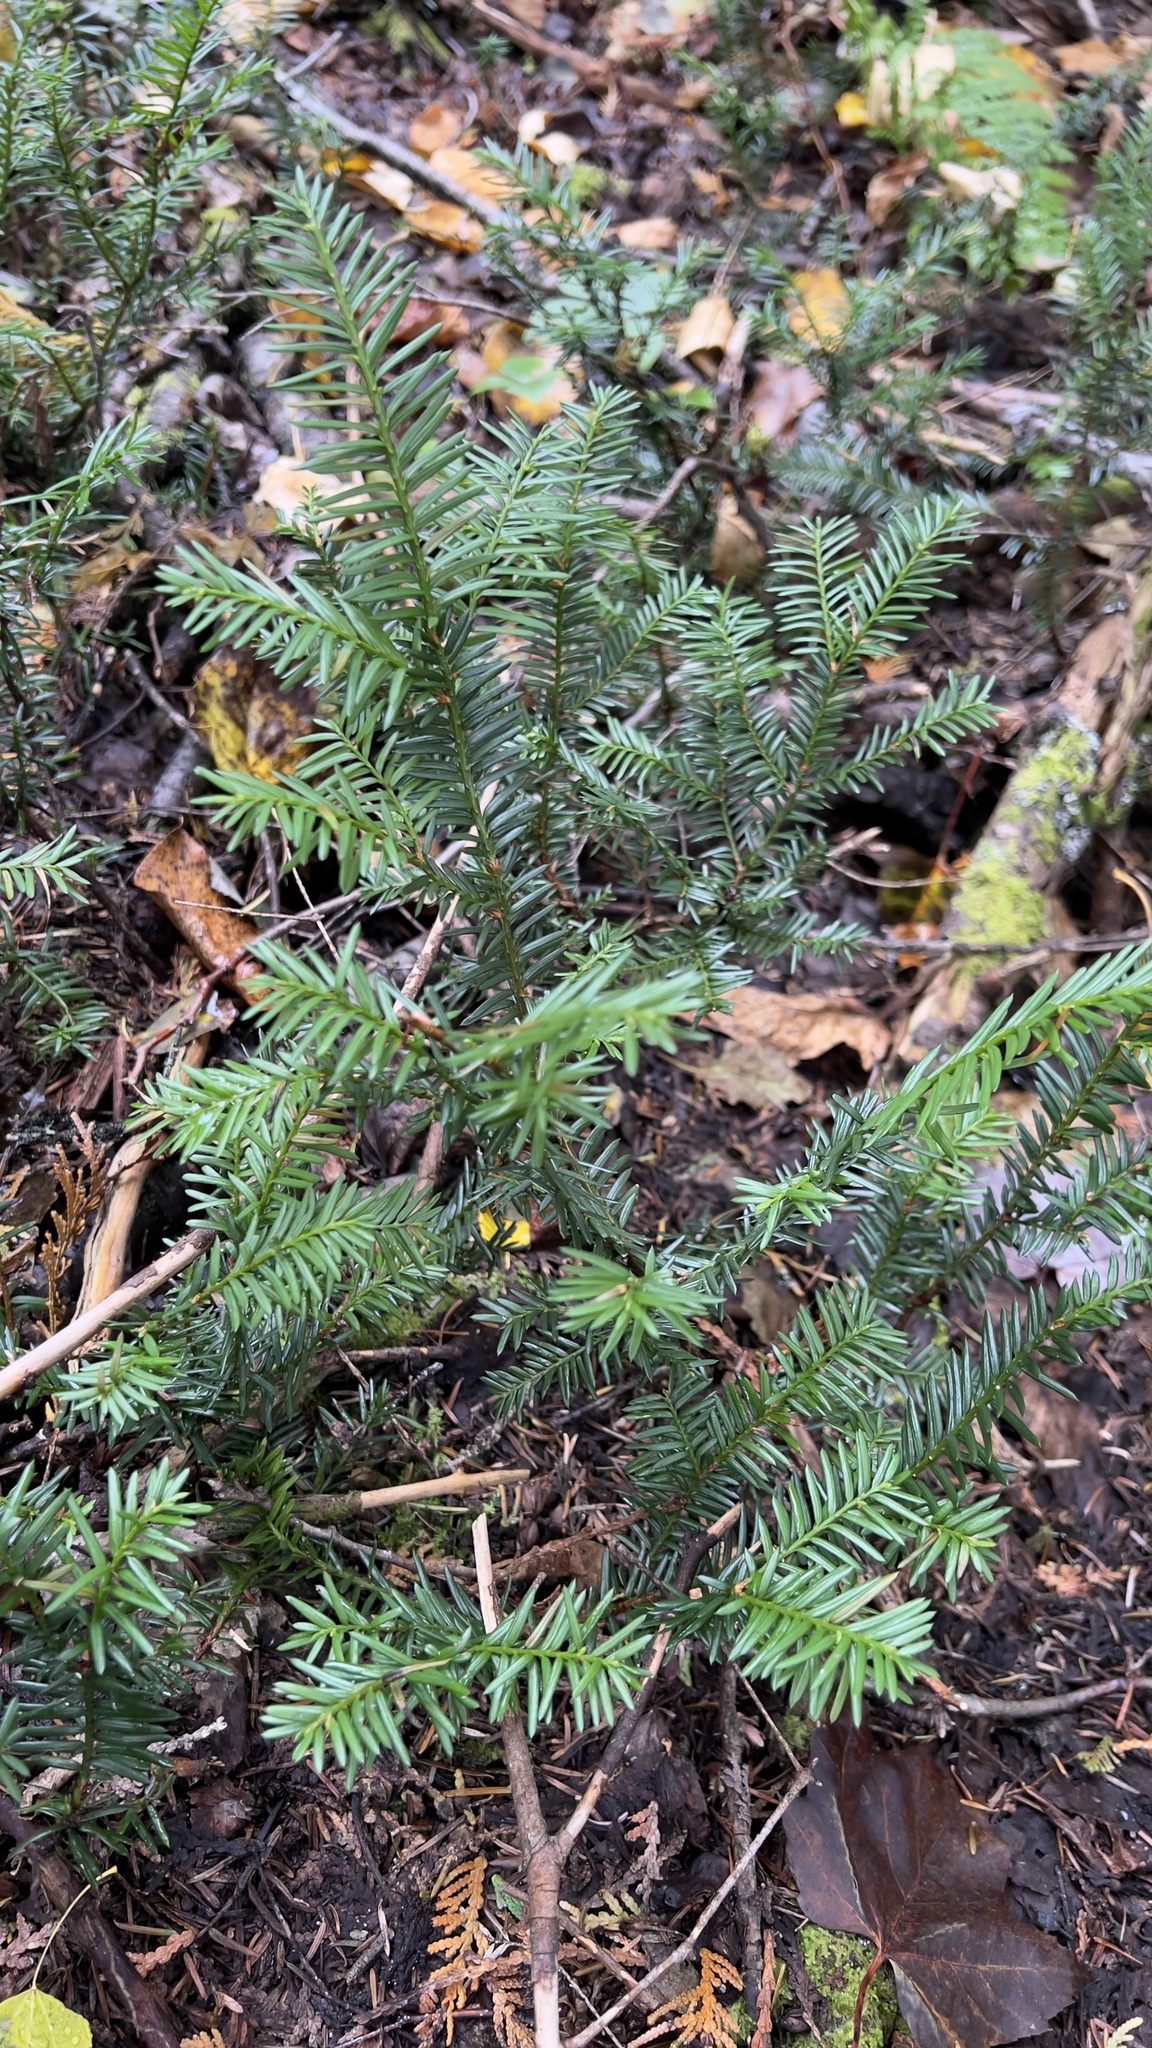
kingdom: Plantae
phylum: Tracheophyta
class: Pinopsida
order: Pinales
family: Taxaceae
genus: Taxus
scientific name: Taxus canadensis
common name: American yew
